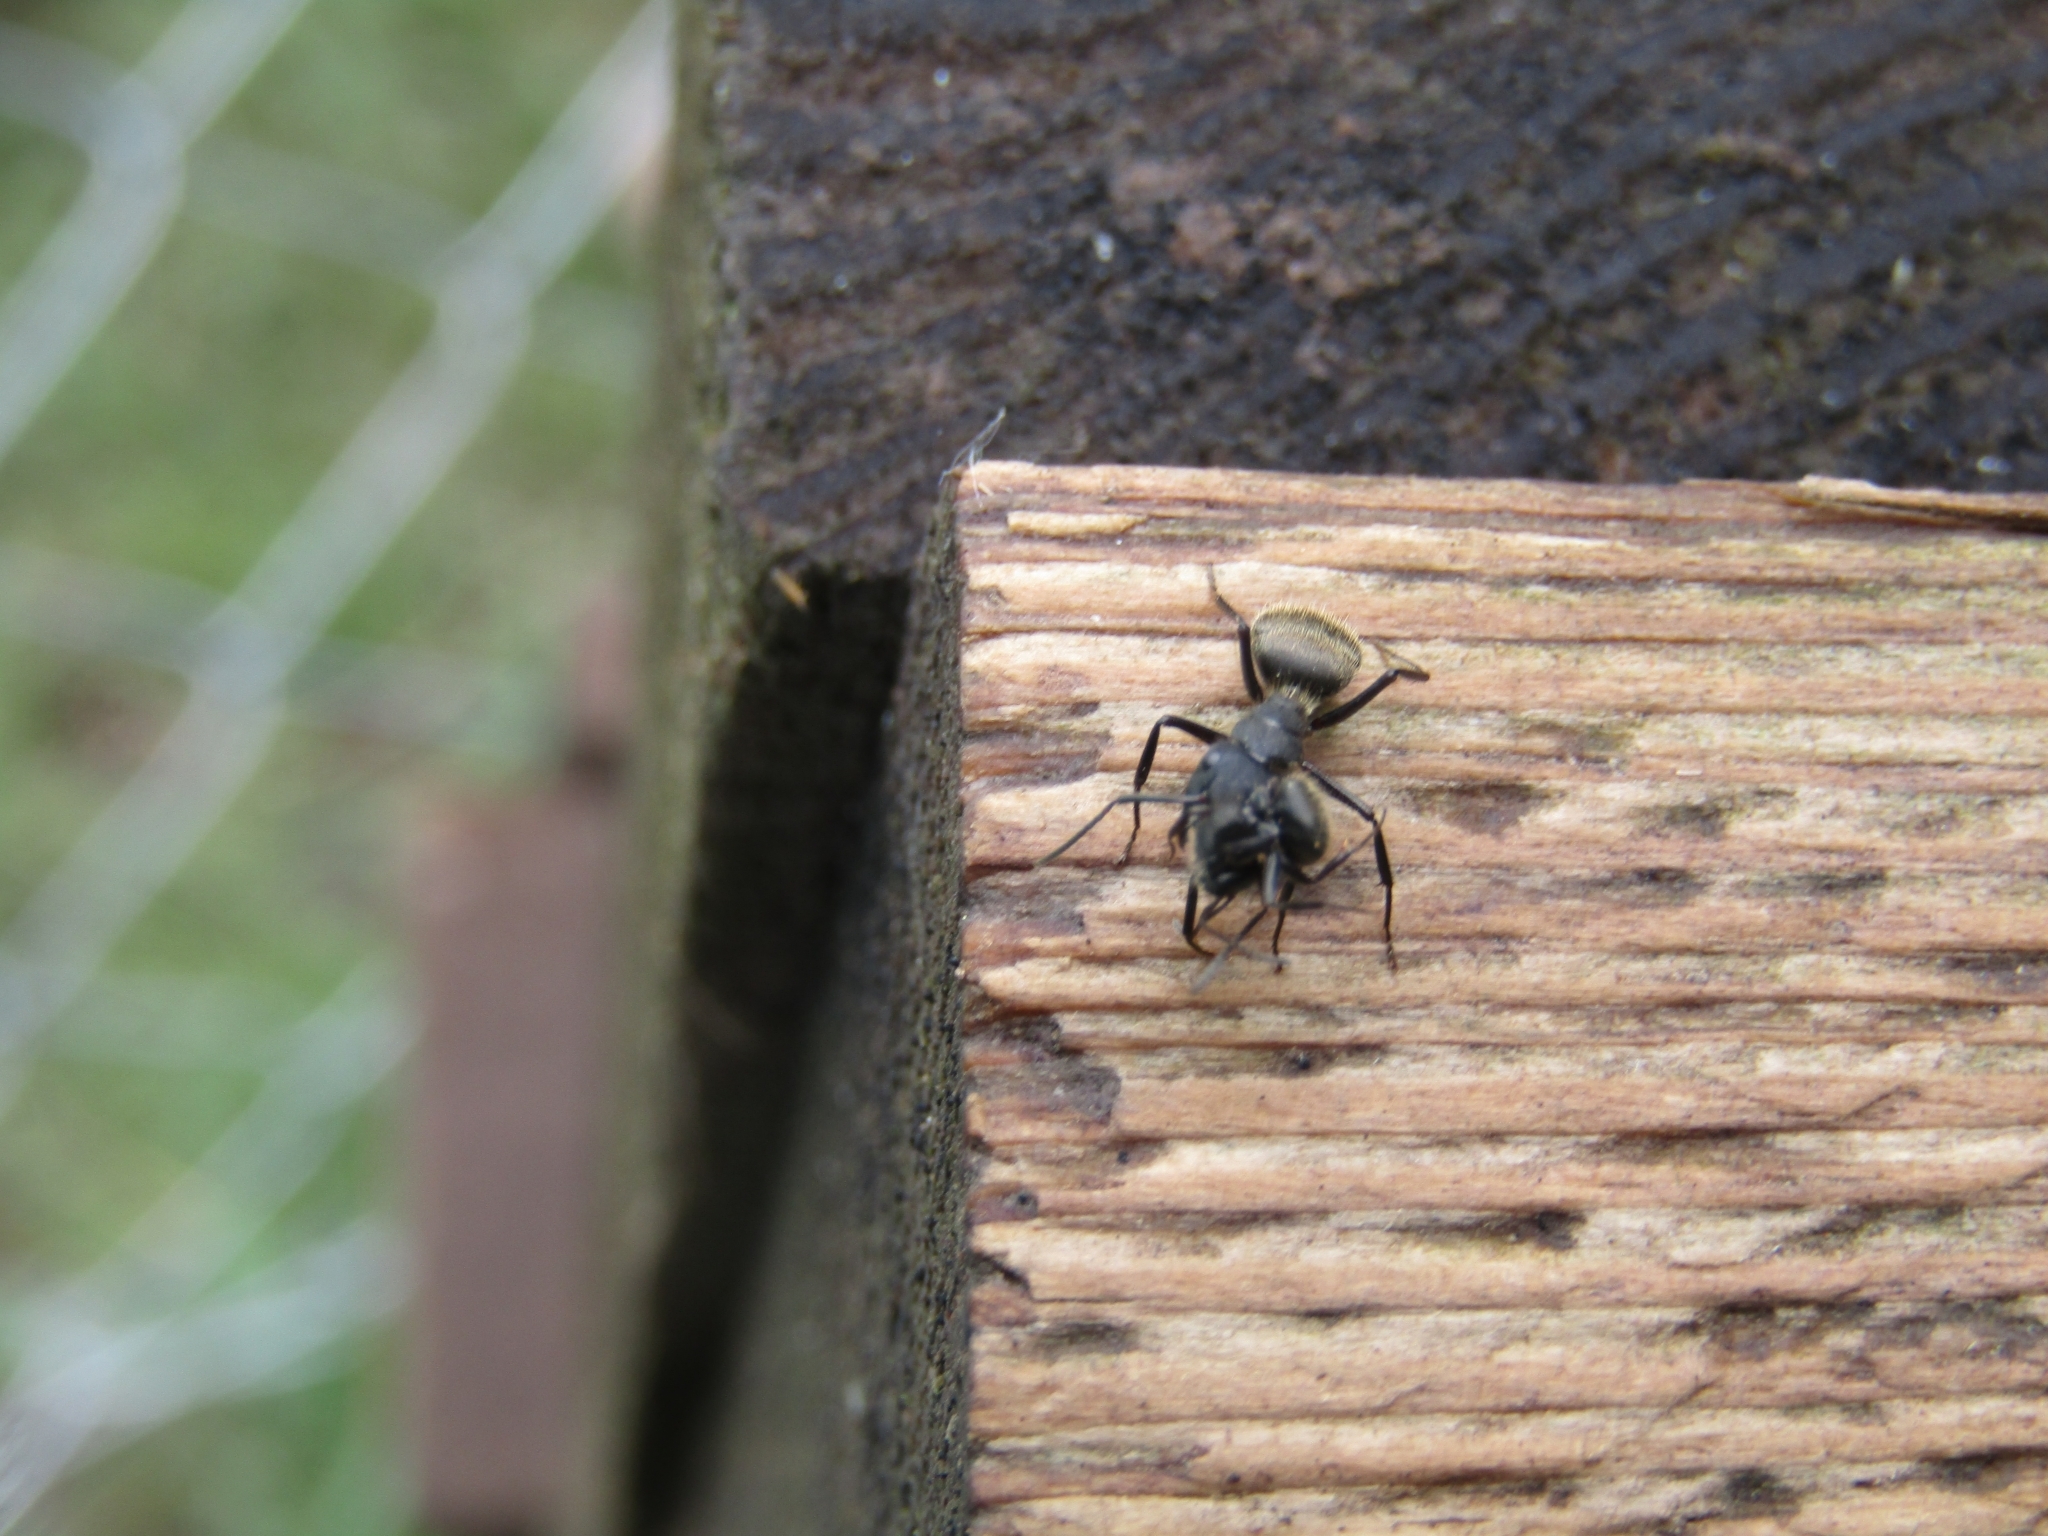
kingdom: Animalia
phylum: Arthropoda
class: Insecta
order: Hymenoptera
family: Formicidae
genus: Camponotus
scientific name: Camponotus mus
